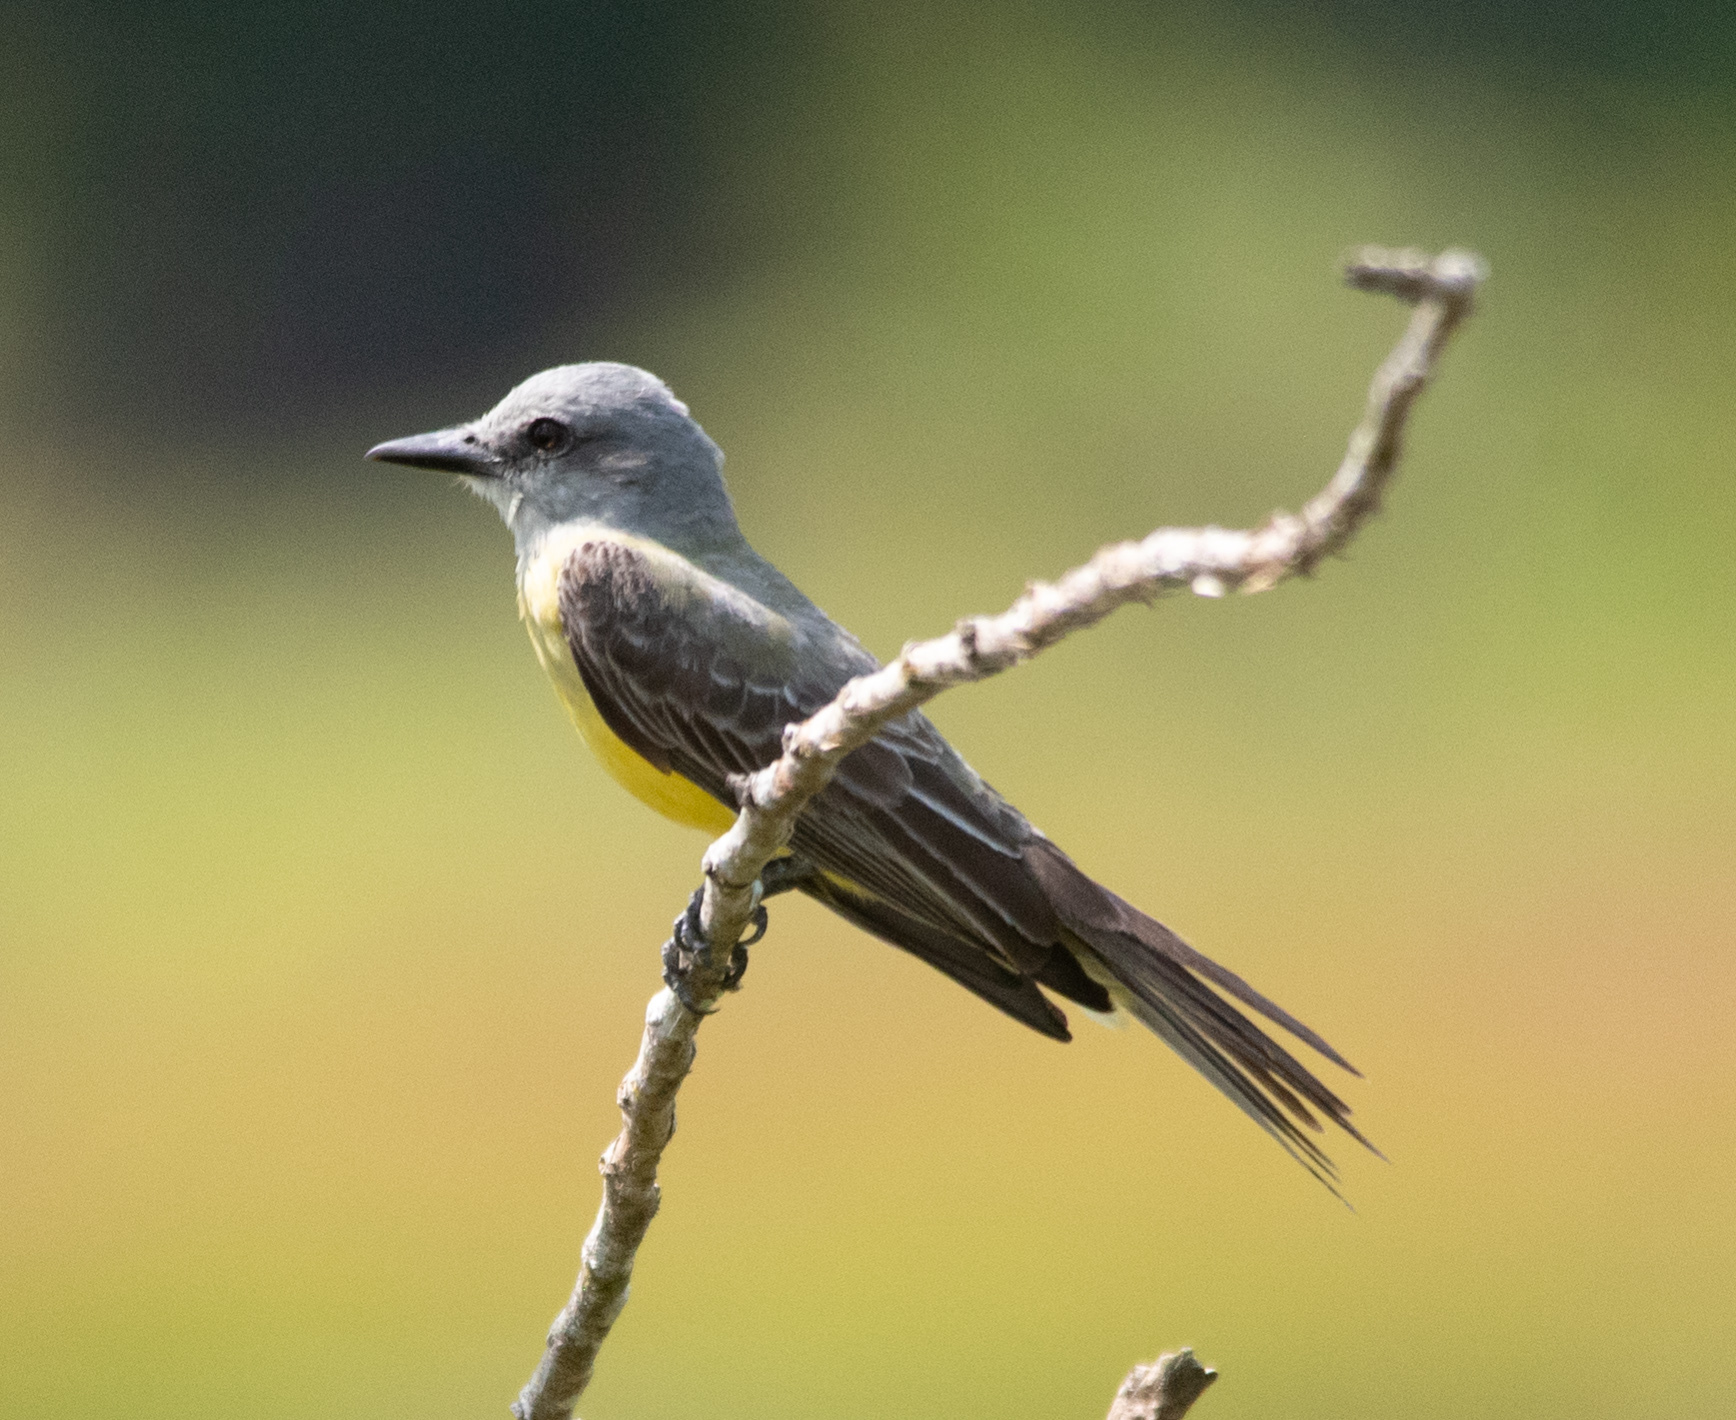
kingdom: Animalia
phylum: Chordata
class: Aves
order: Passeriformes
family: Tyrannidae
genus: Tyrannus
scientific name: Tyrannus melancholicus
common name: Tropical kingbird
